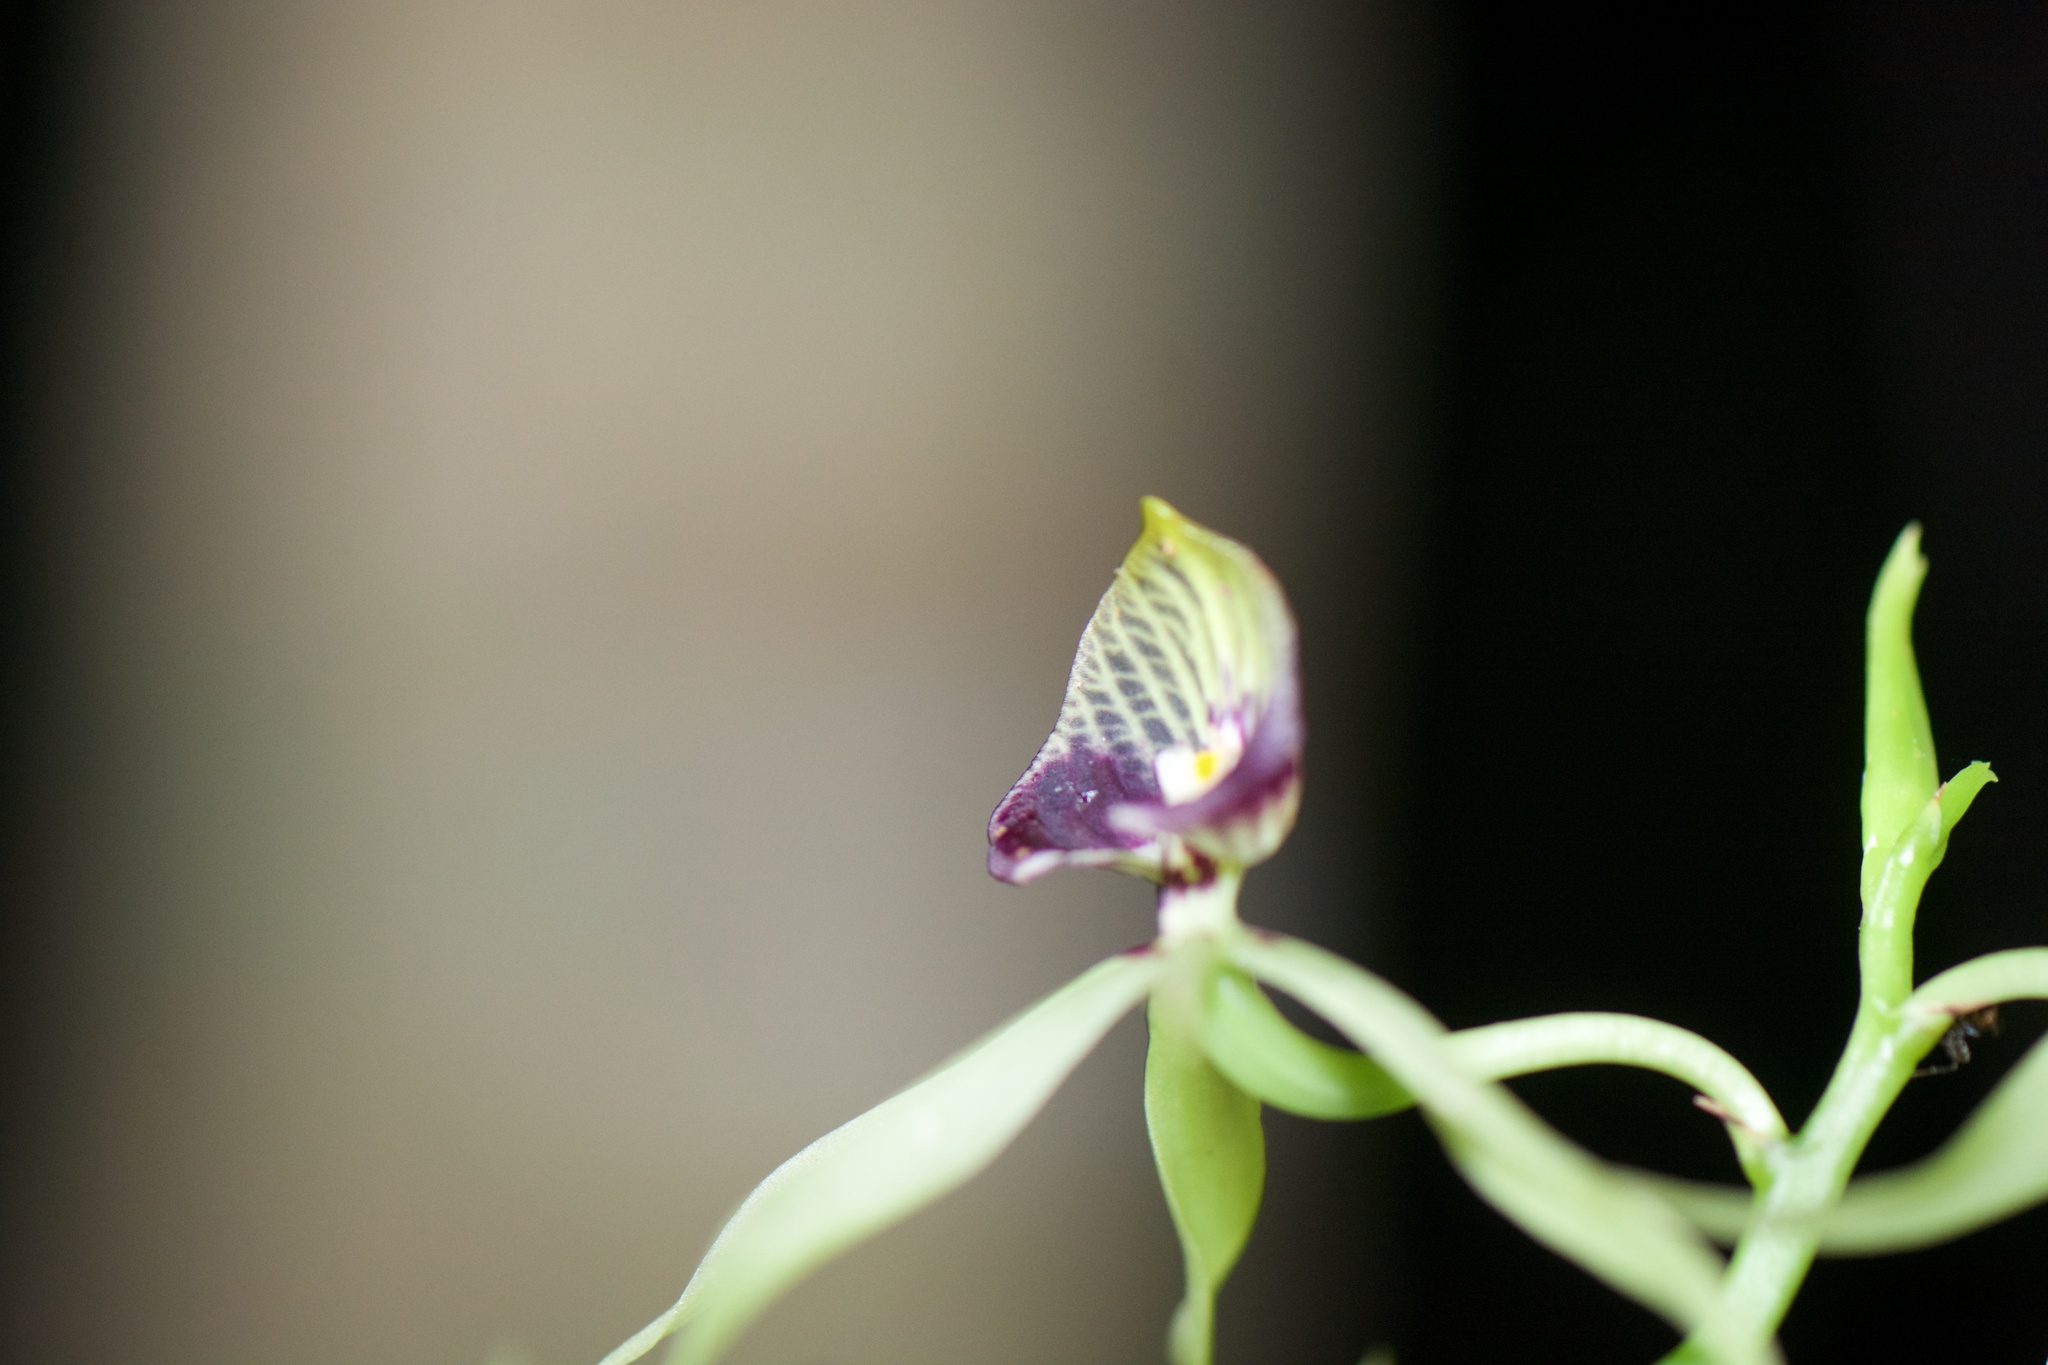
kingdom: Plantae
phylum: Tracheophyta
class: Liliopsida
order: Asparagales
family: Orchidaceae
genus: Prosthechea
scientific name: Prosthechea cochleata
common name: Clamshell orchid
